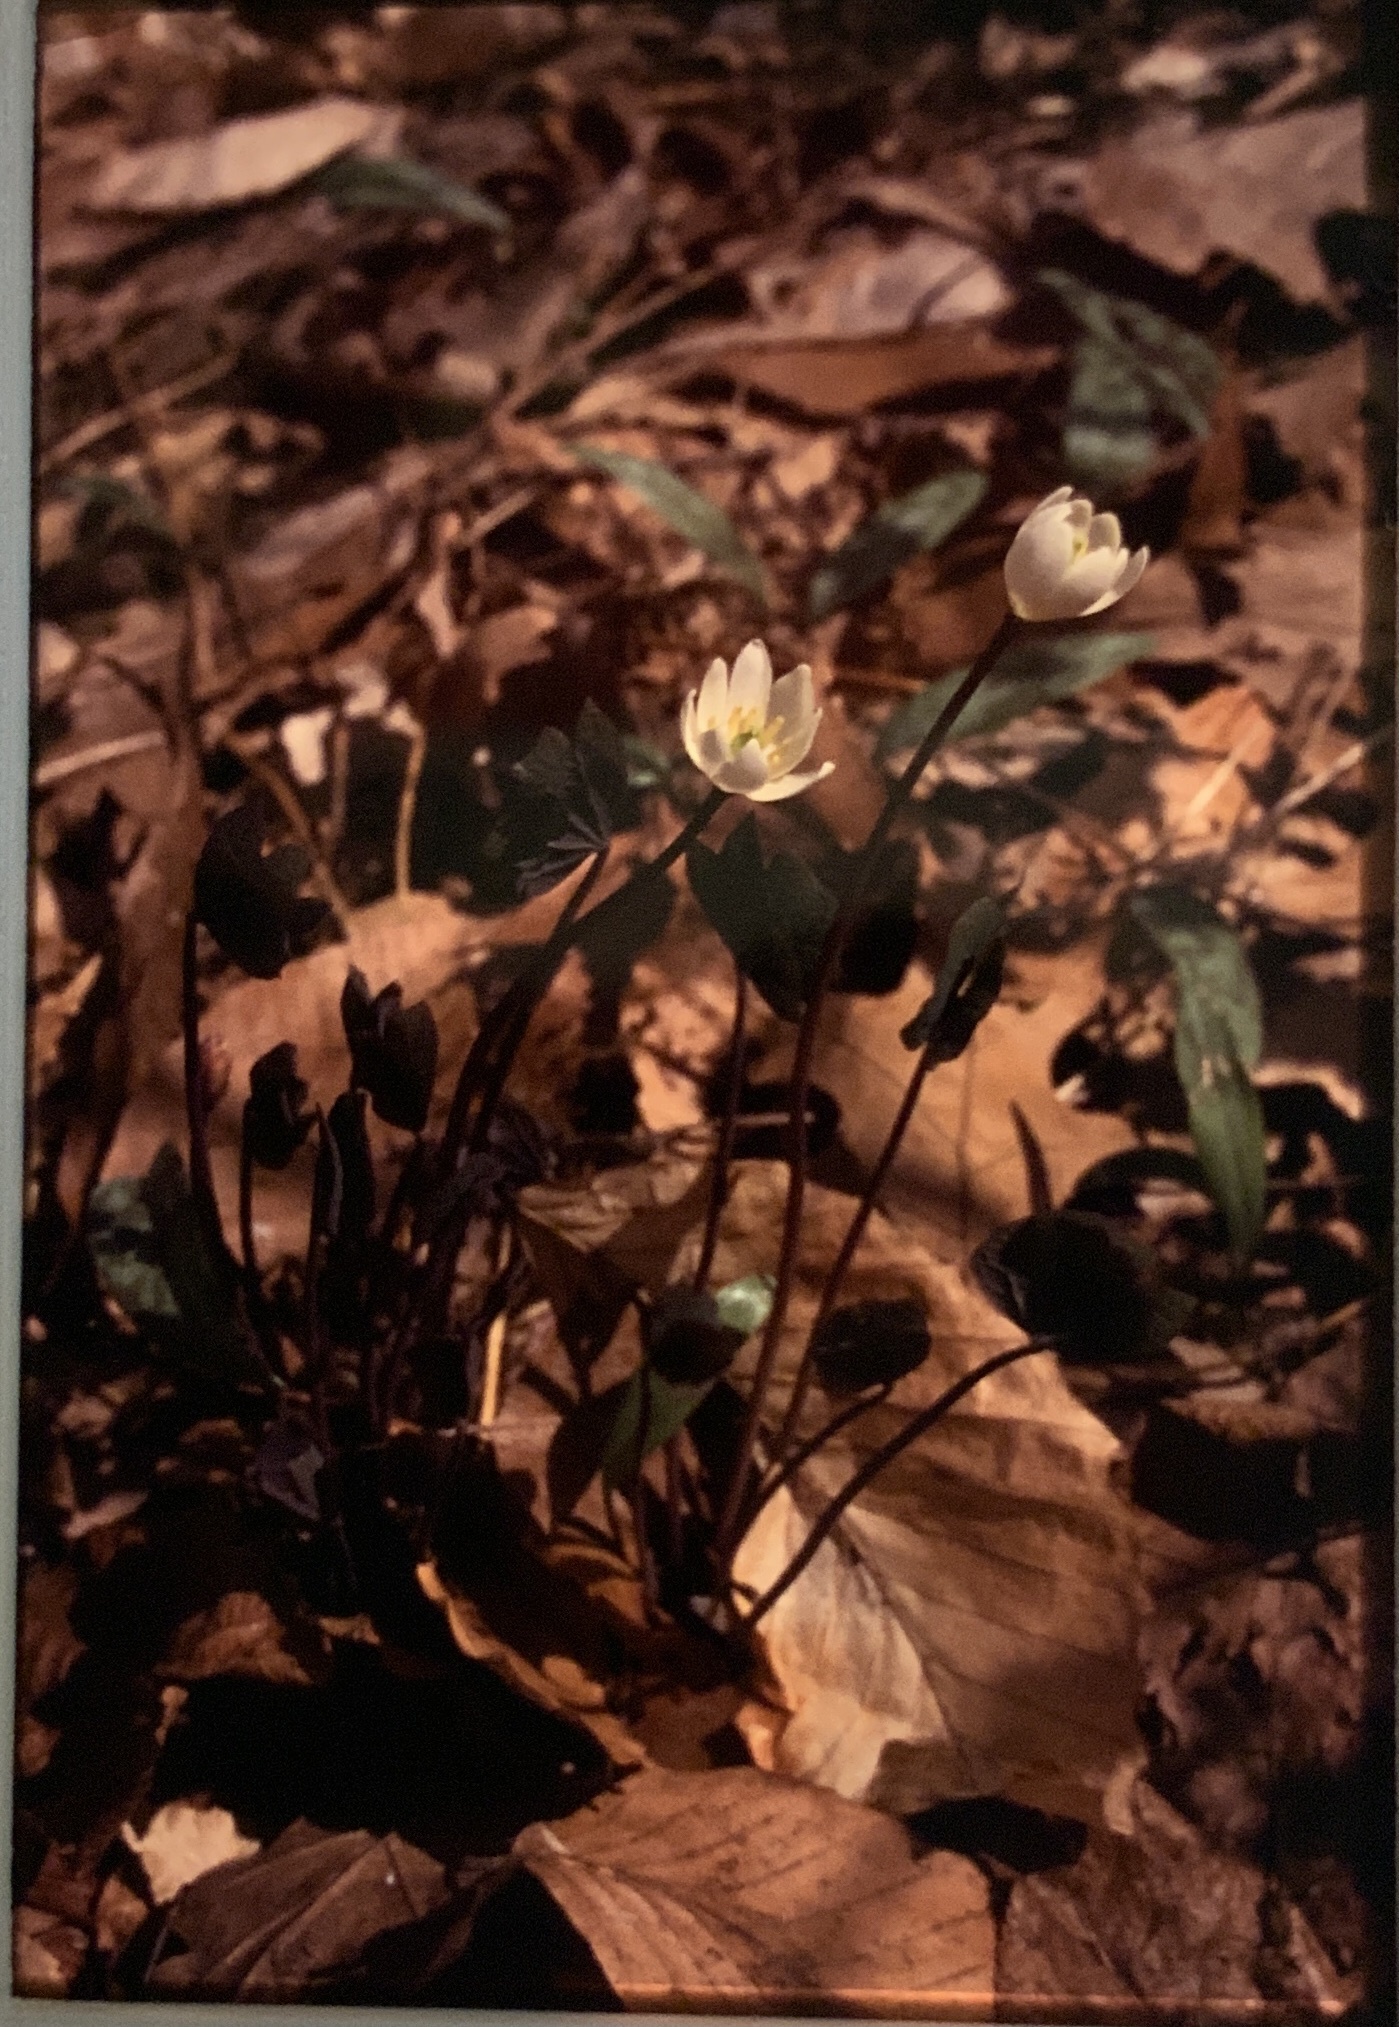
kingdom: Plantae
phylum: Tracheophyta
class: Magnoliopsida
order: Ranunculales
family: Berberidaceae
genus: Jeffersonia
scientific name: Jeffersonia diphylla
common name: Rheumatism-root
